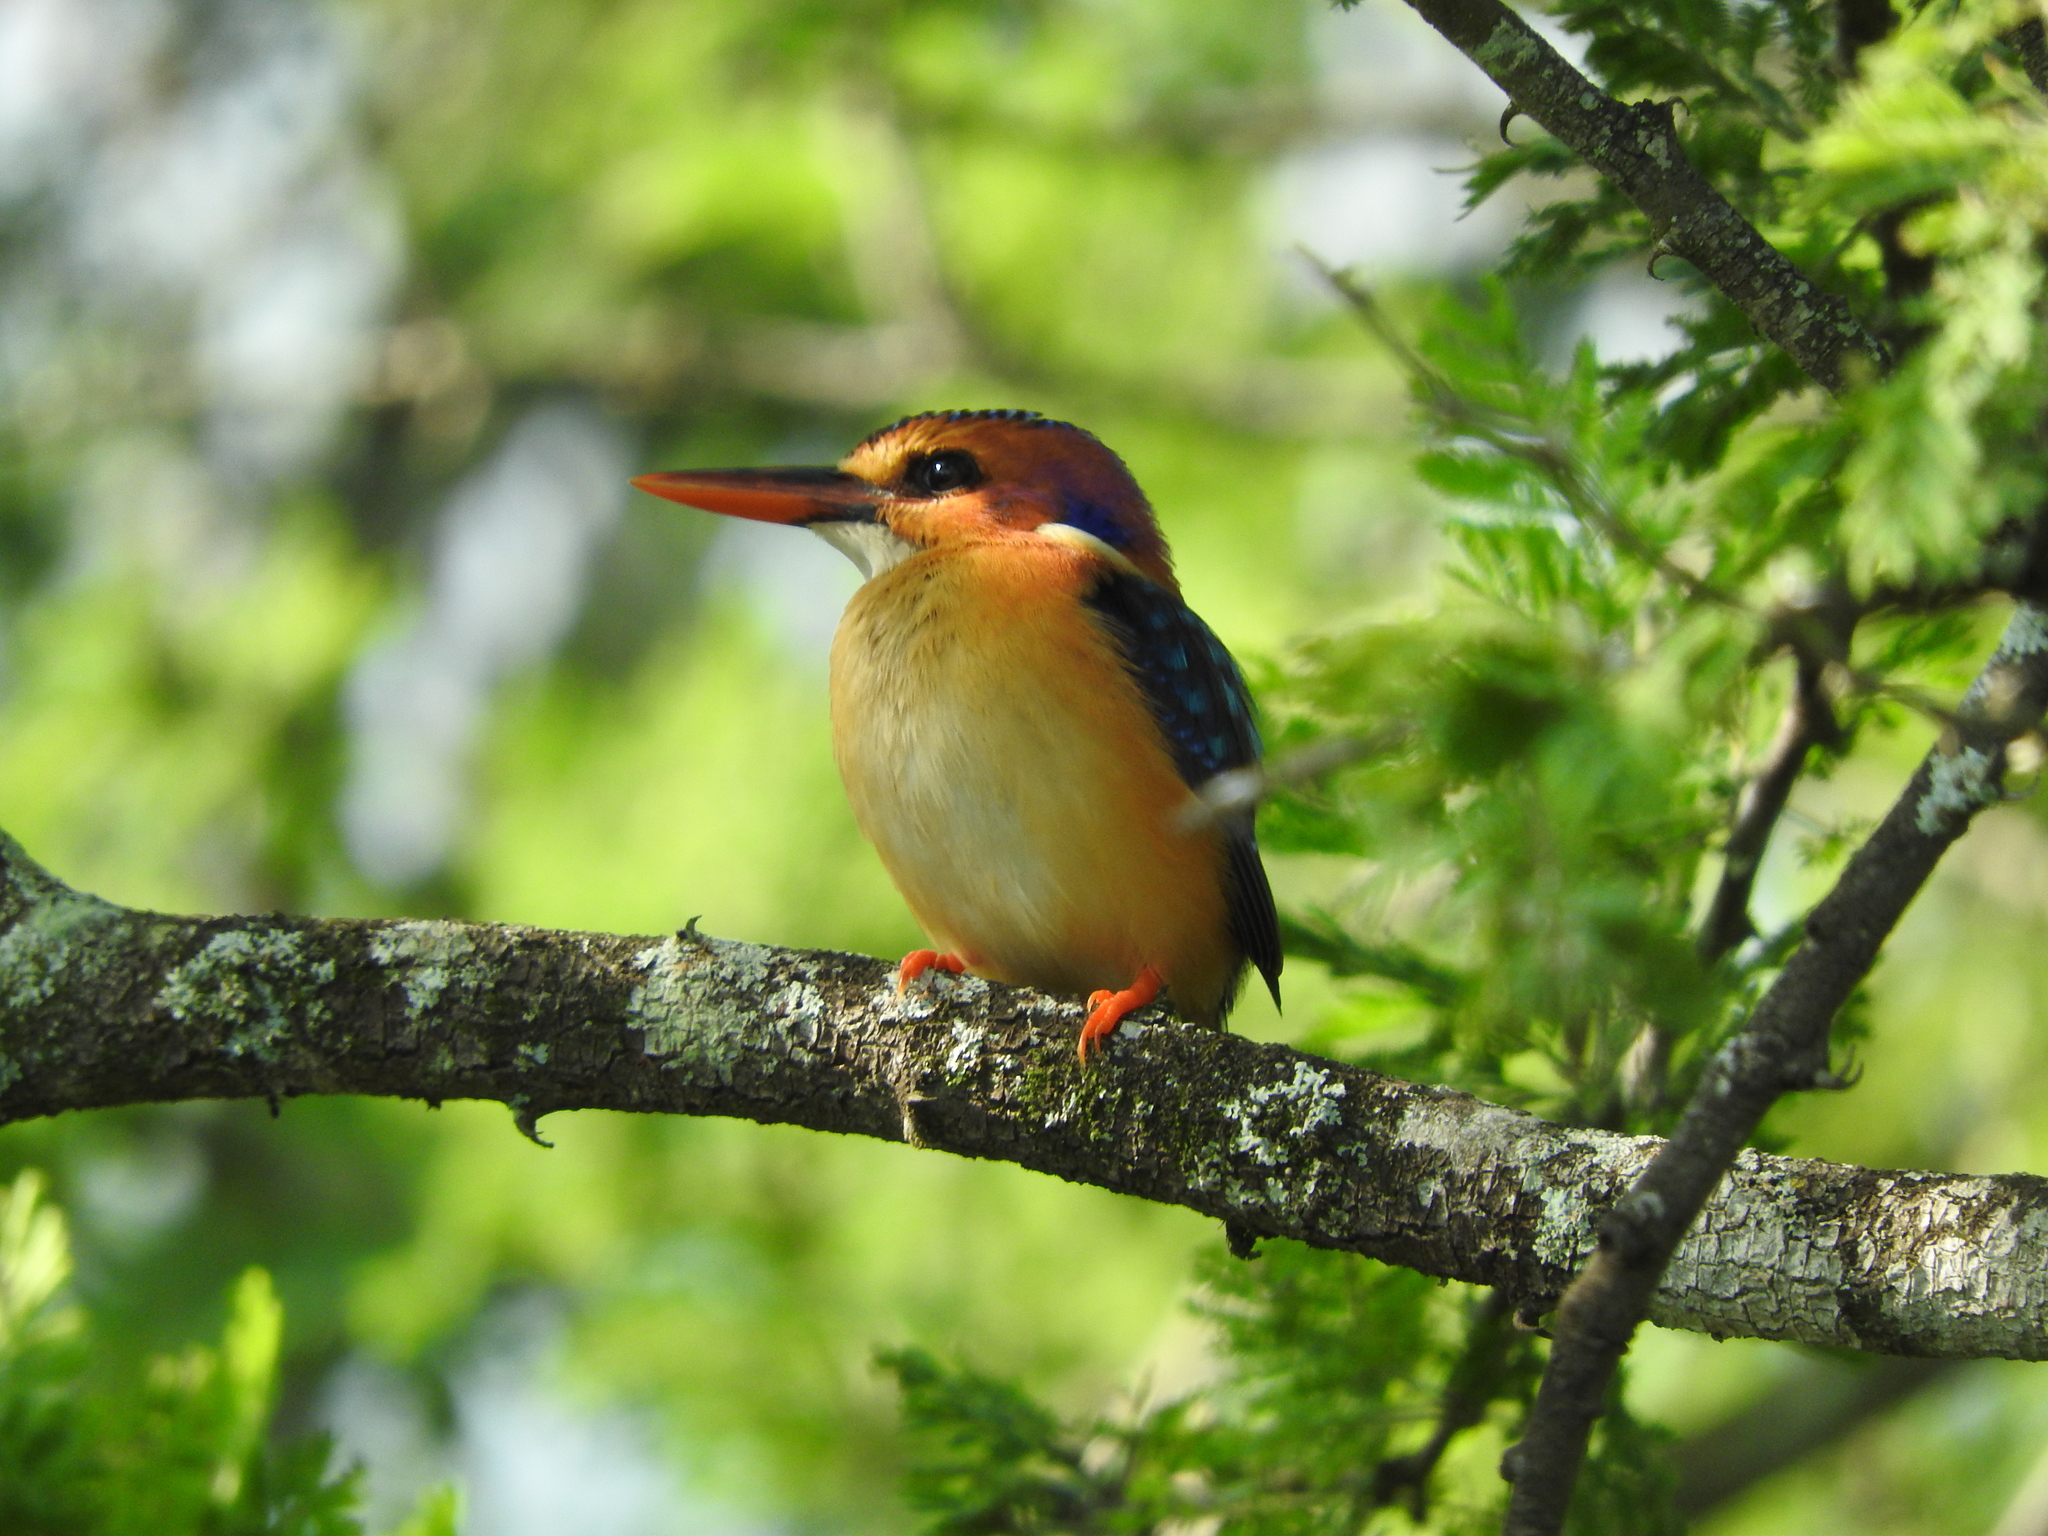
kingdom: Animalia
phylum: Chordata
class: Aves
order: Coraciiformes
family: Alcedinidae
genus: Ispidina
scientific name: Ispidina picta
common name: African pygmy-kingfisher
